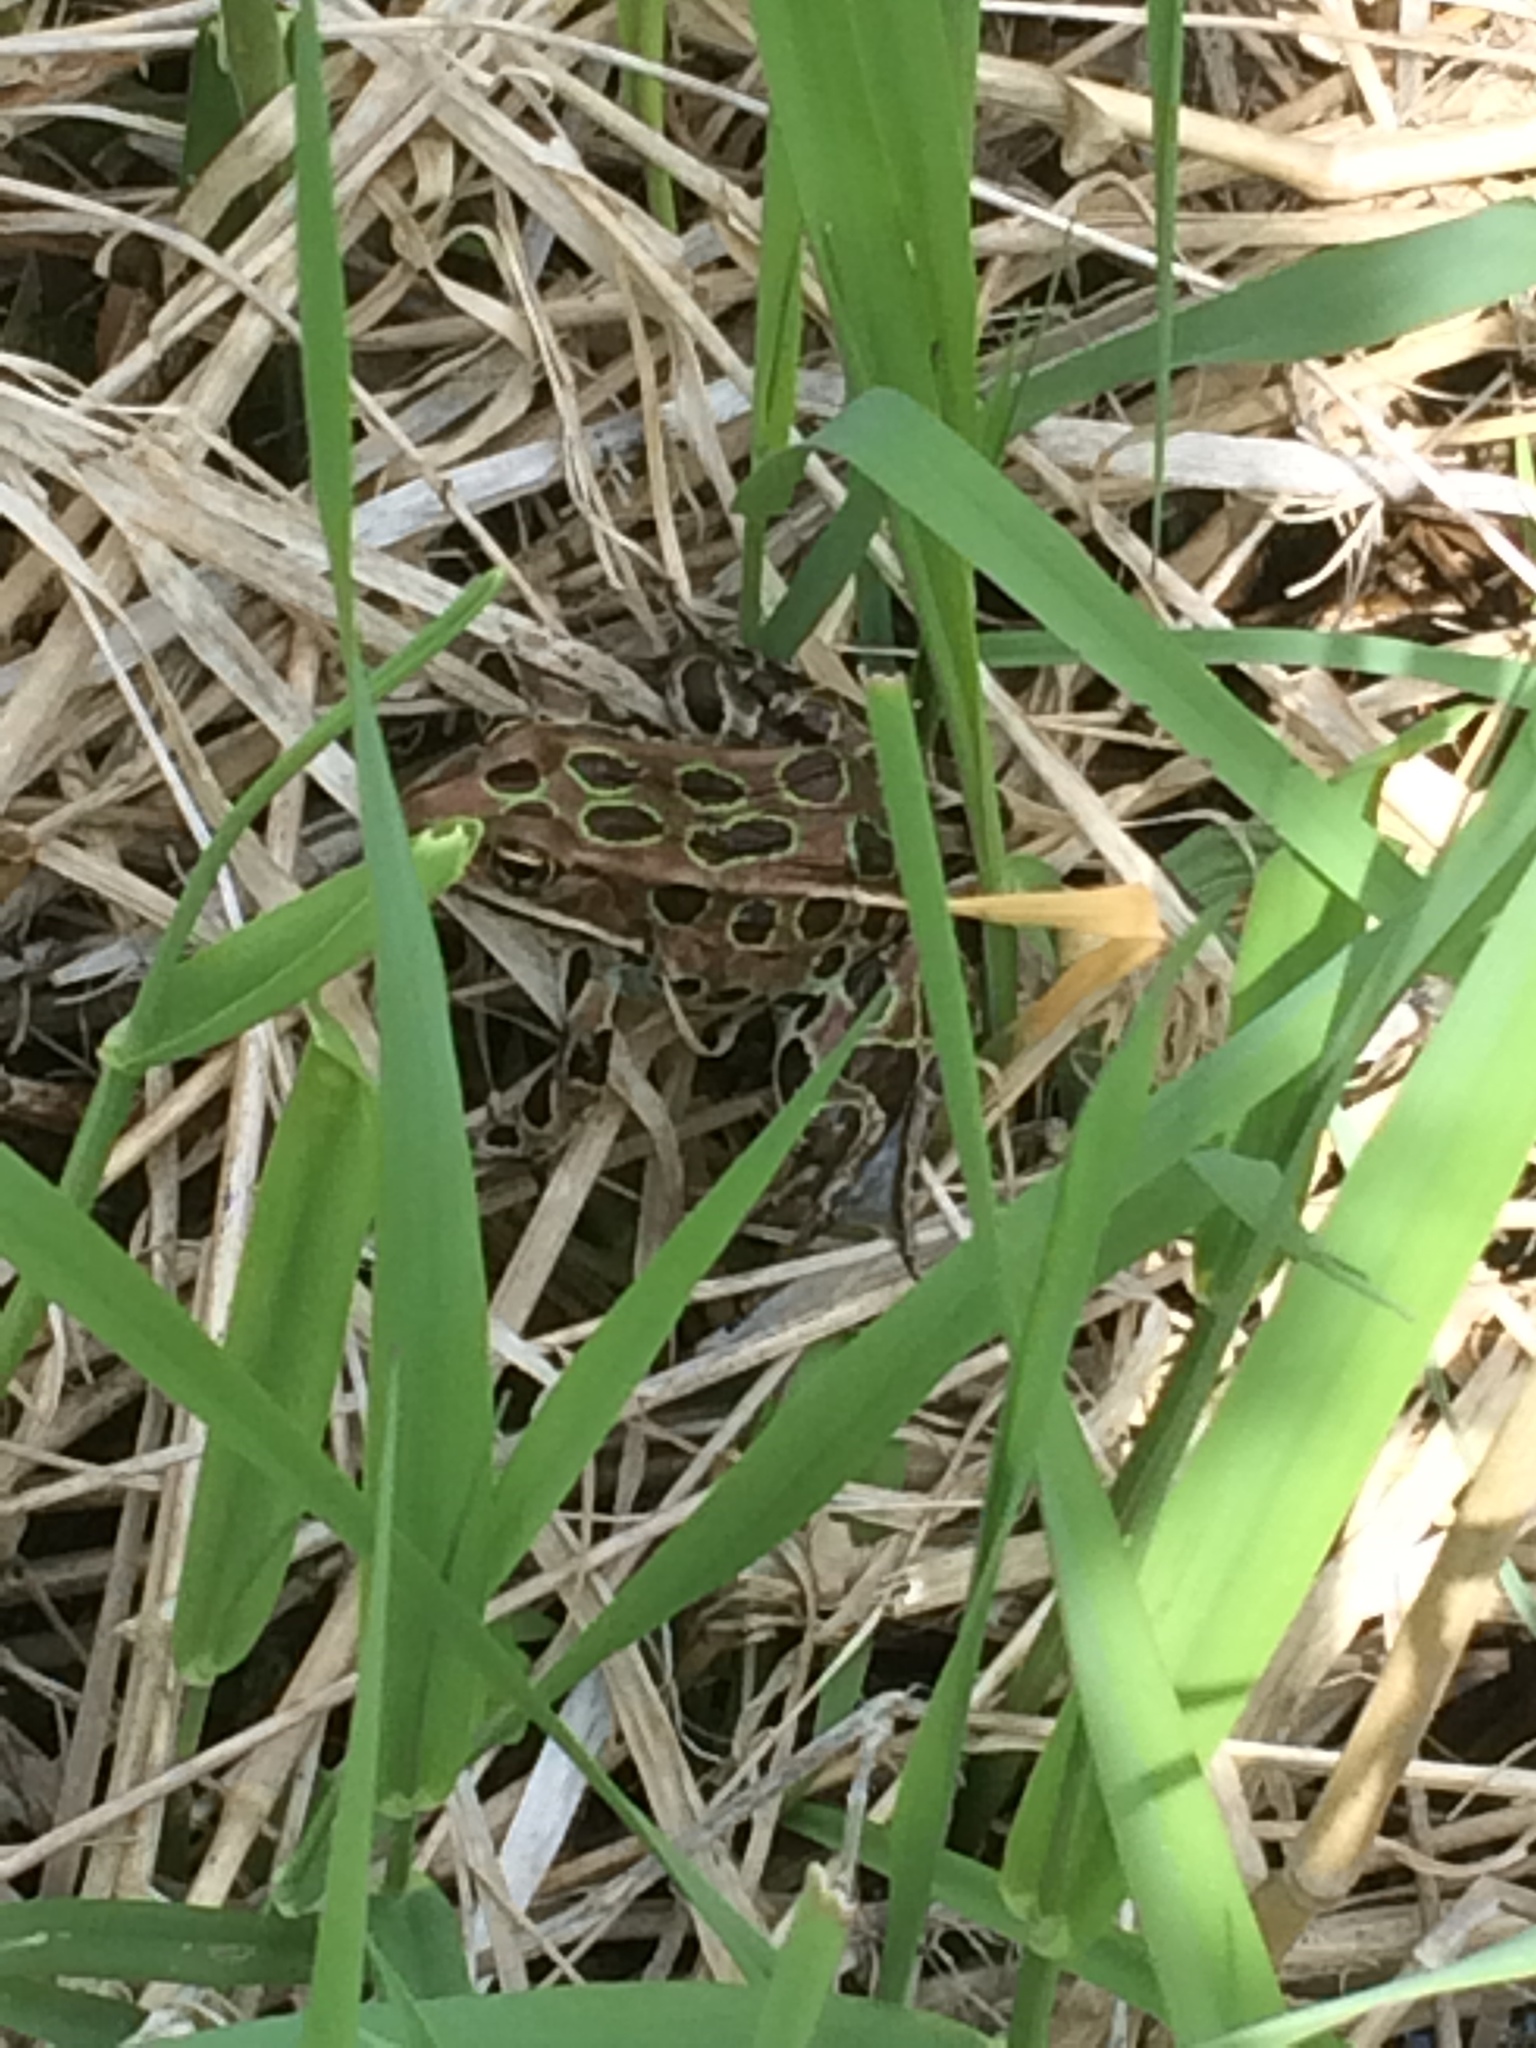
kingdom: Animalia
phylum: Chordata
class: Amphibia
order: Anura
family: Ranidae
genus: Lithobates
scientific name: Lithobates pipiens
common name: Northern leopard frog
